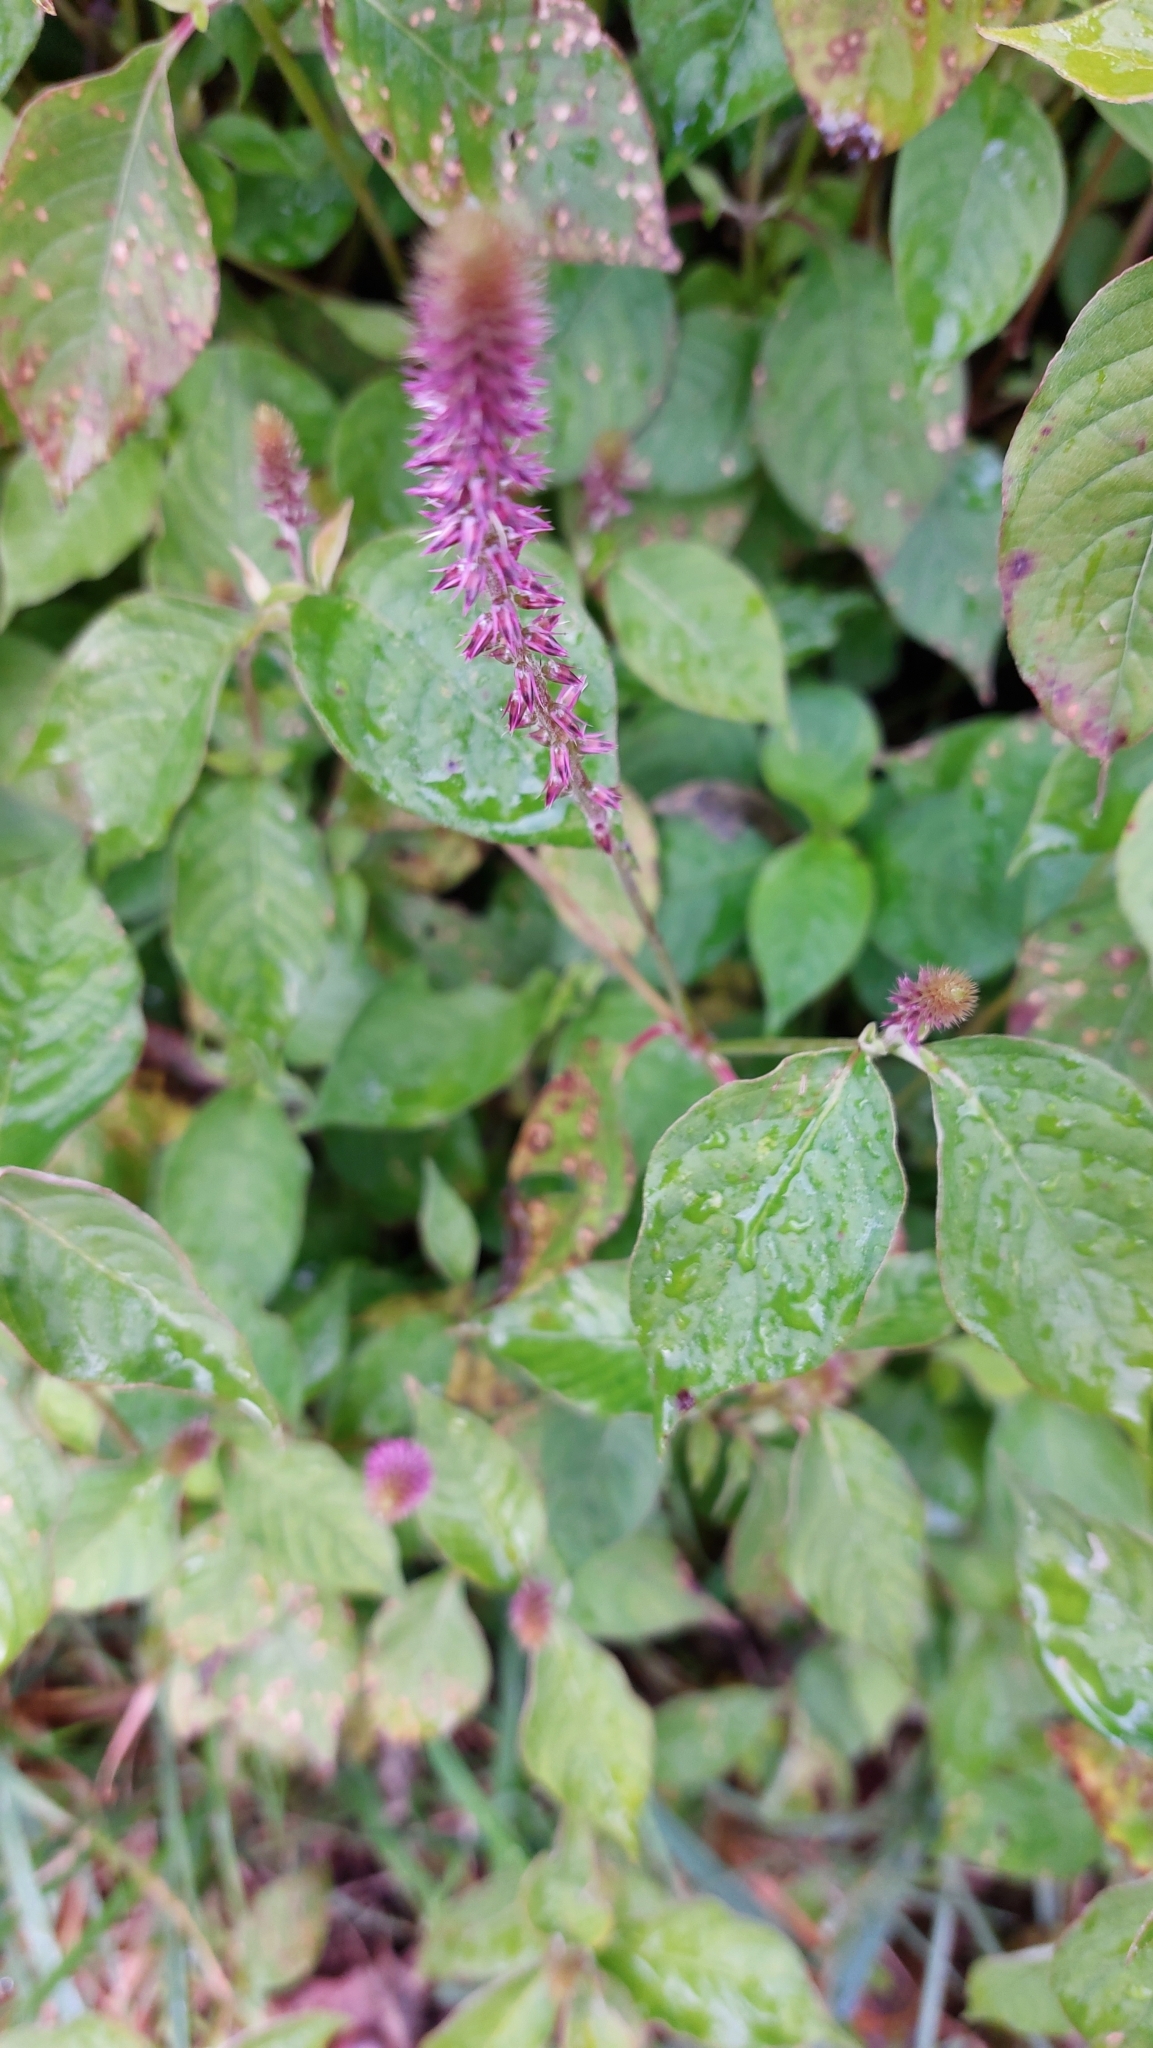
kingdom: Plantae
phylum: Tracheophyta
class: Magnoliopsida
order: Caryophyllales
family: Amaranthaceae
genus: Achyranthes
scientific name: Achyranthes aspera
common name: Devil's horsewhip
